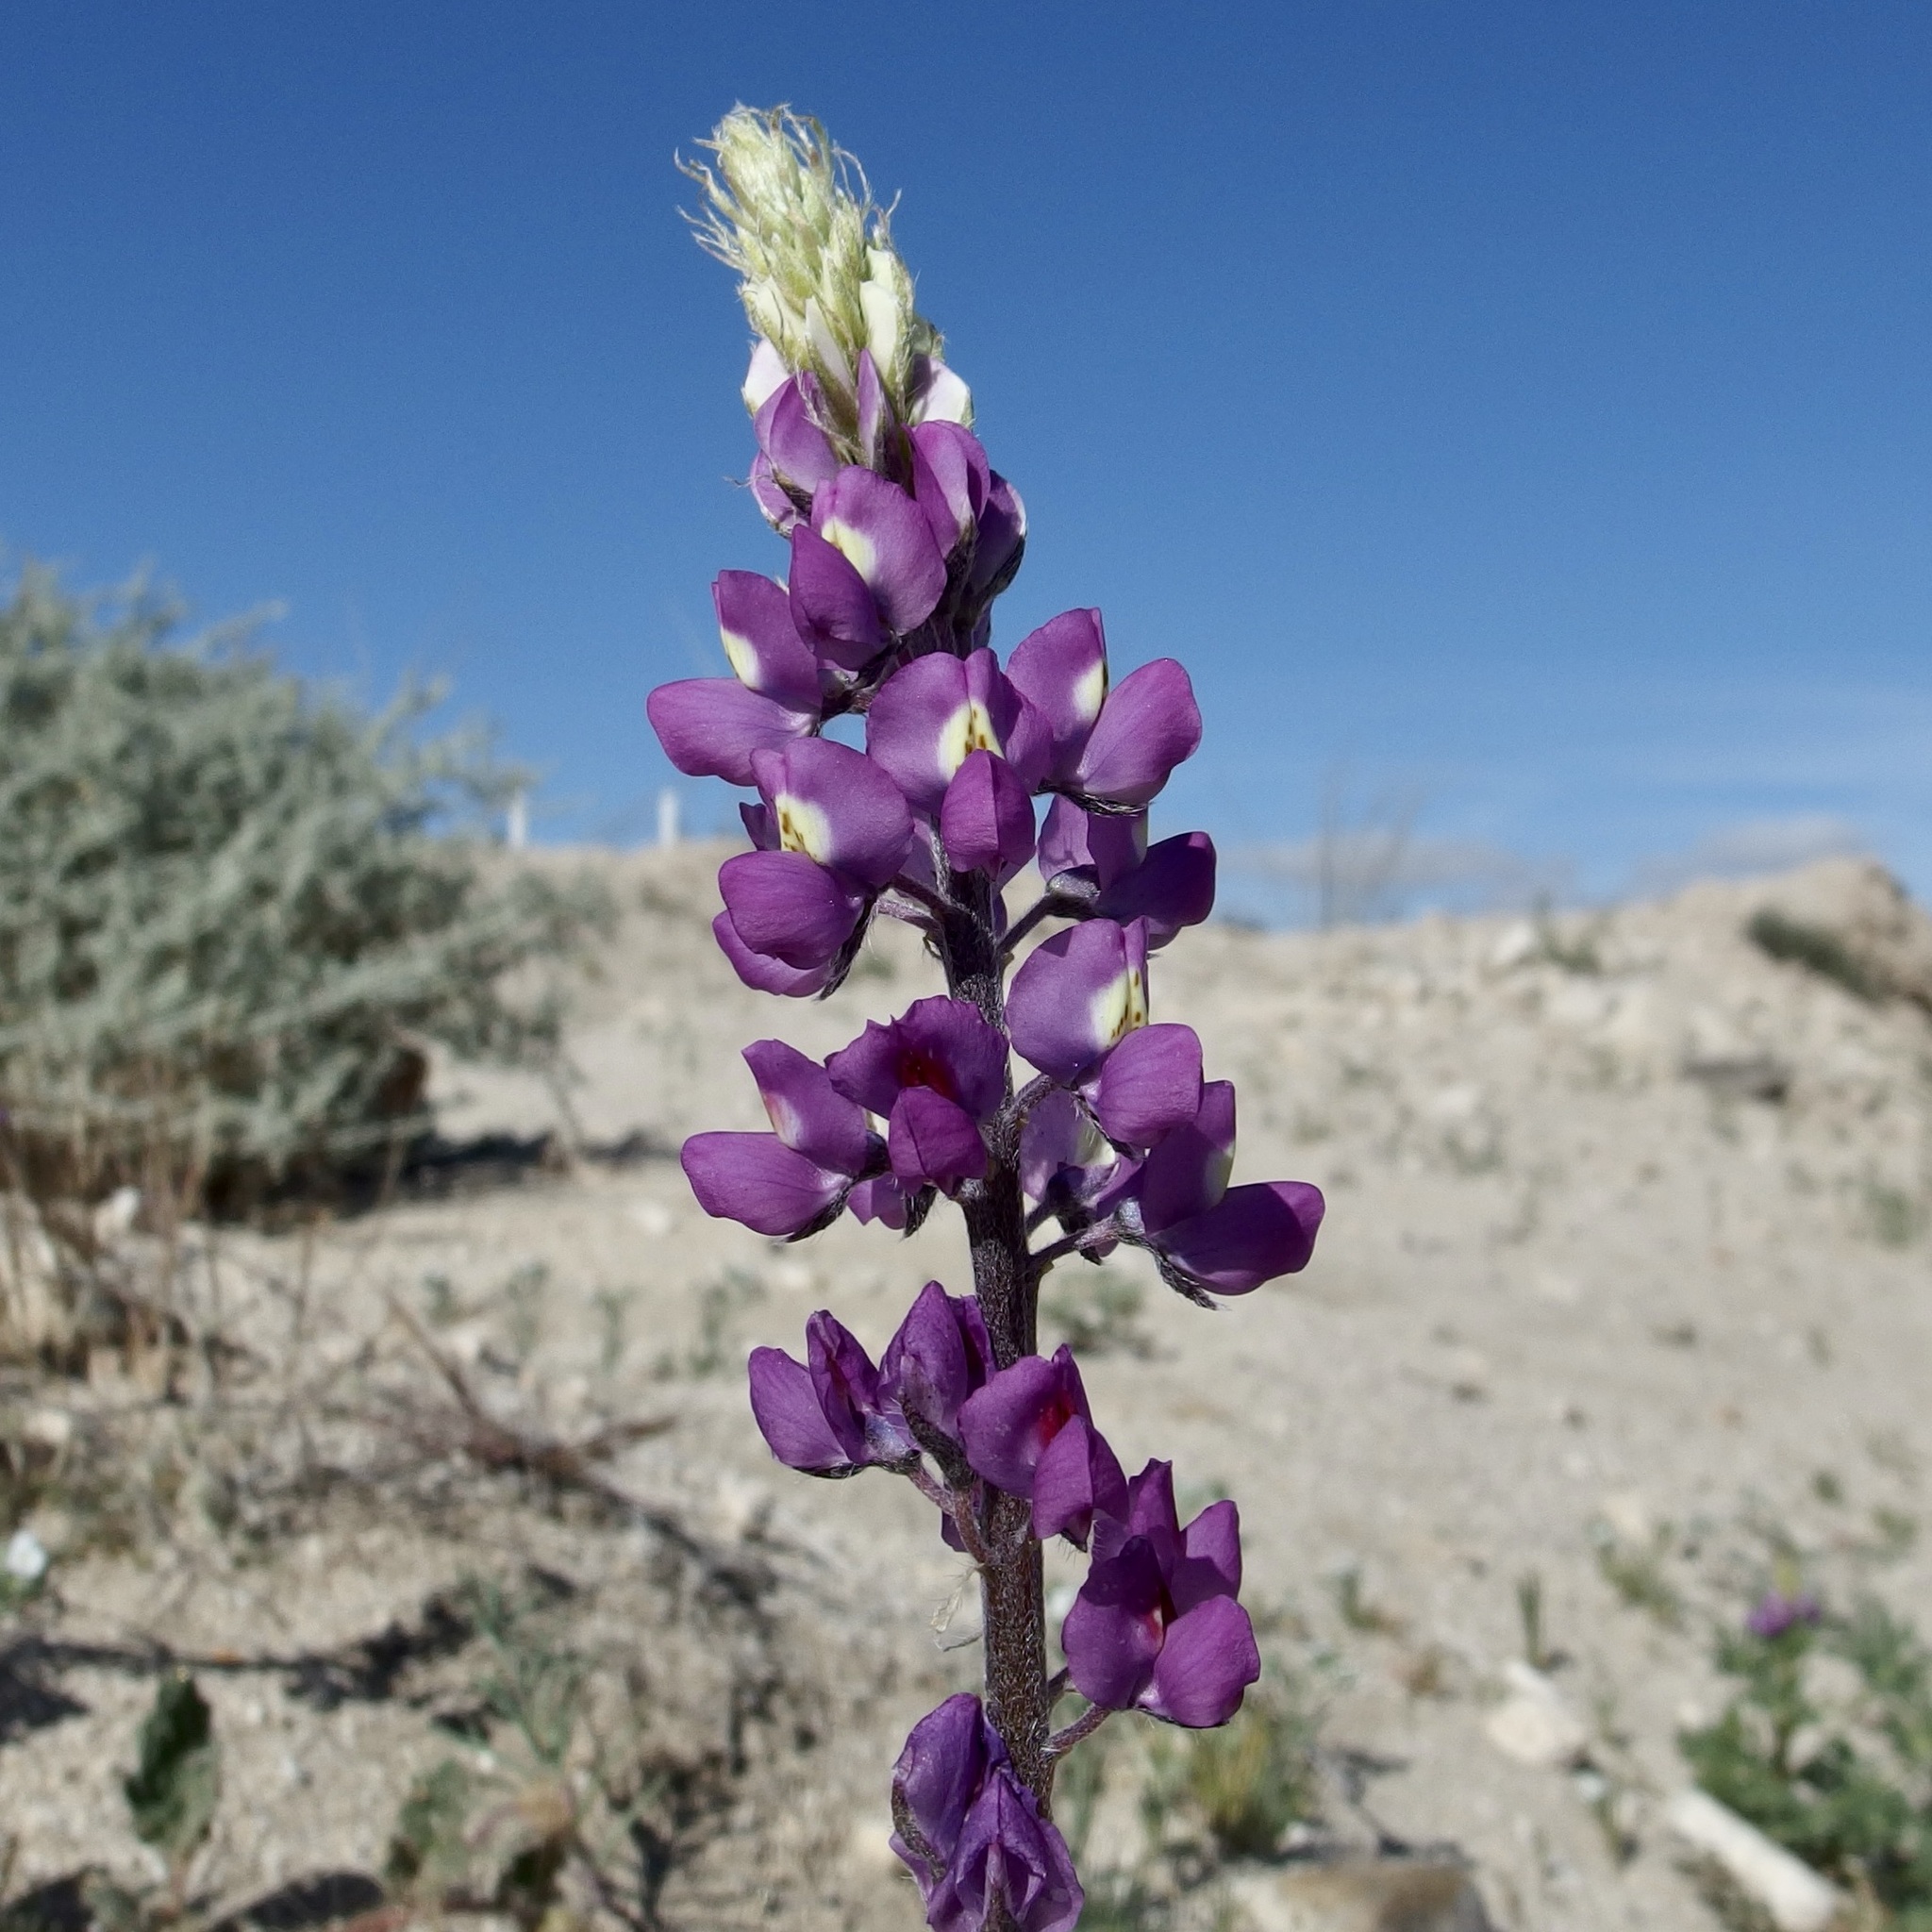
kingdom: Plantae
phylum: Tracheophyta
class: Magnoliopsida
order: Fabales
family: Fabaceae
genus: Lupinus
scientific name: Lupinus arizonicus
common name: Arizona lupine
